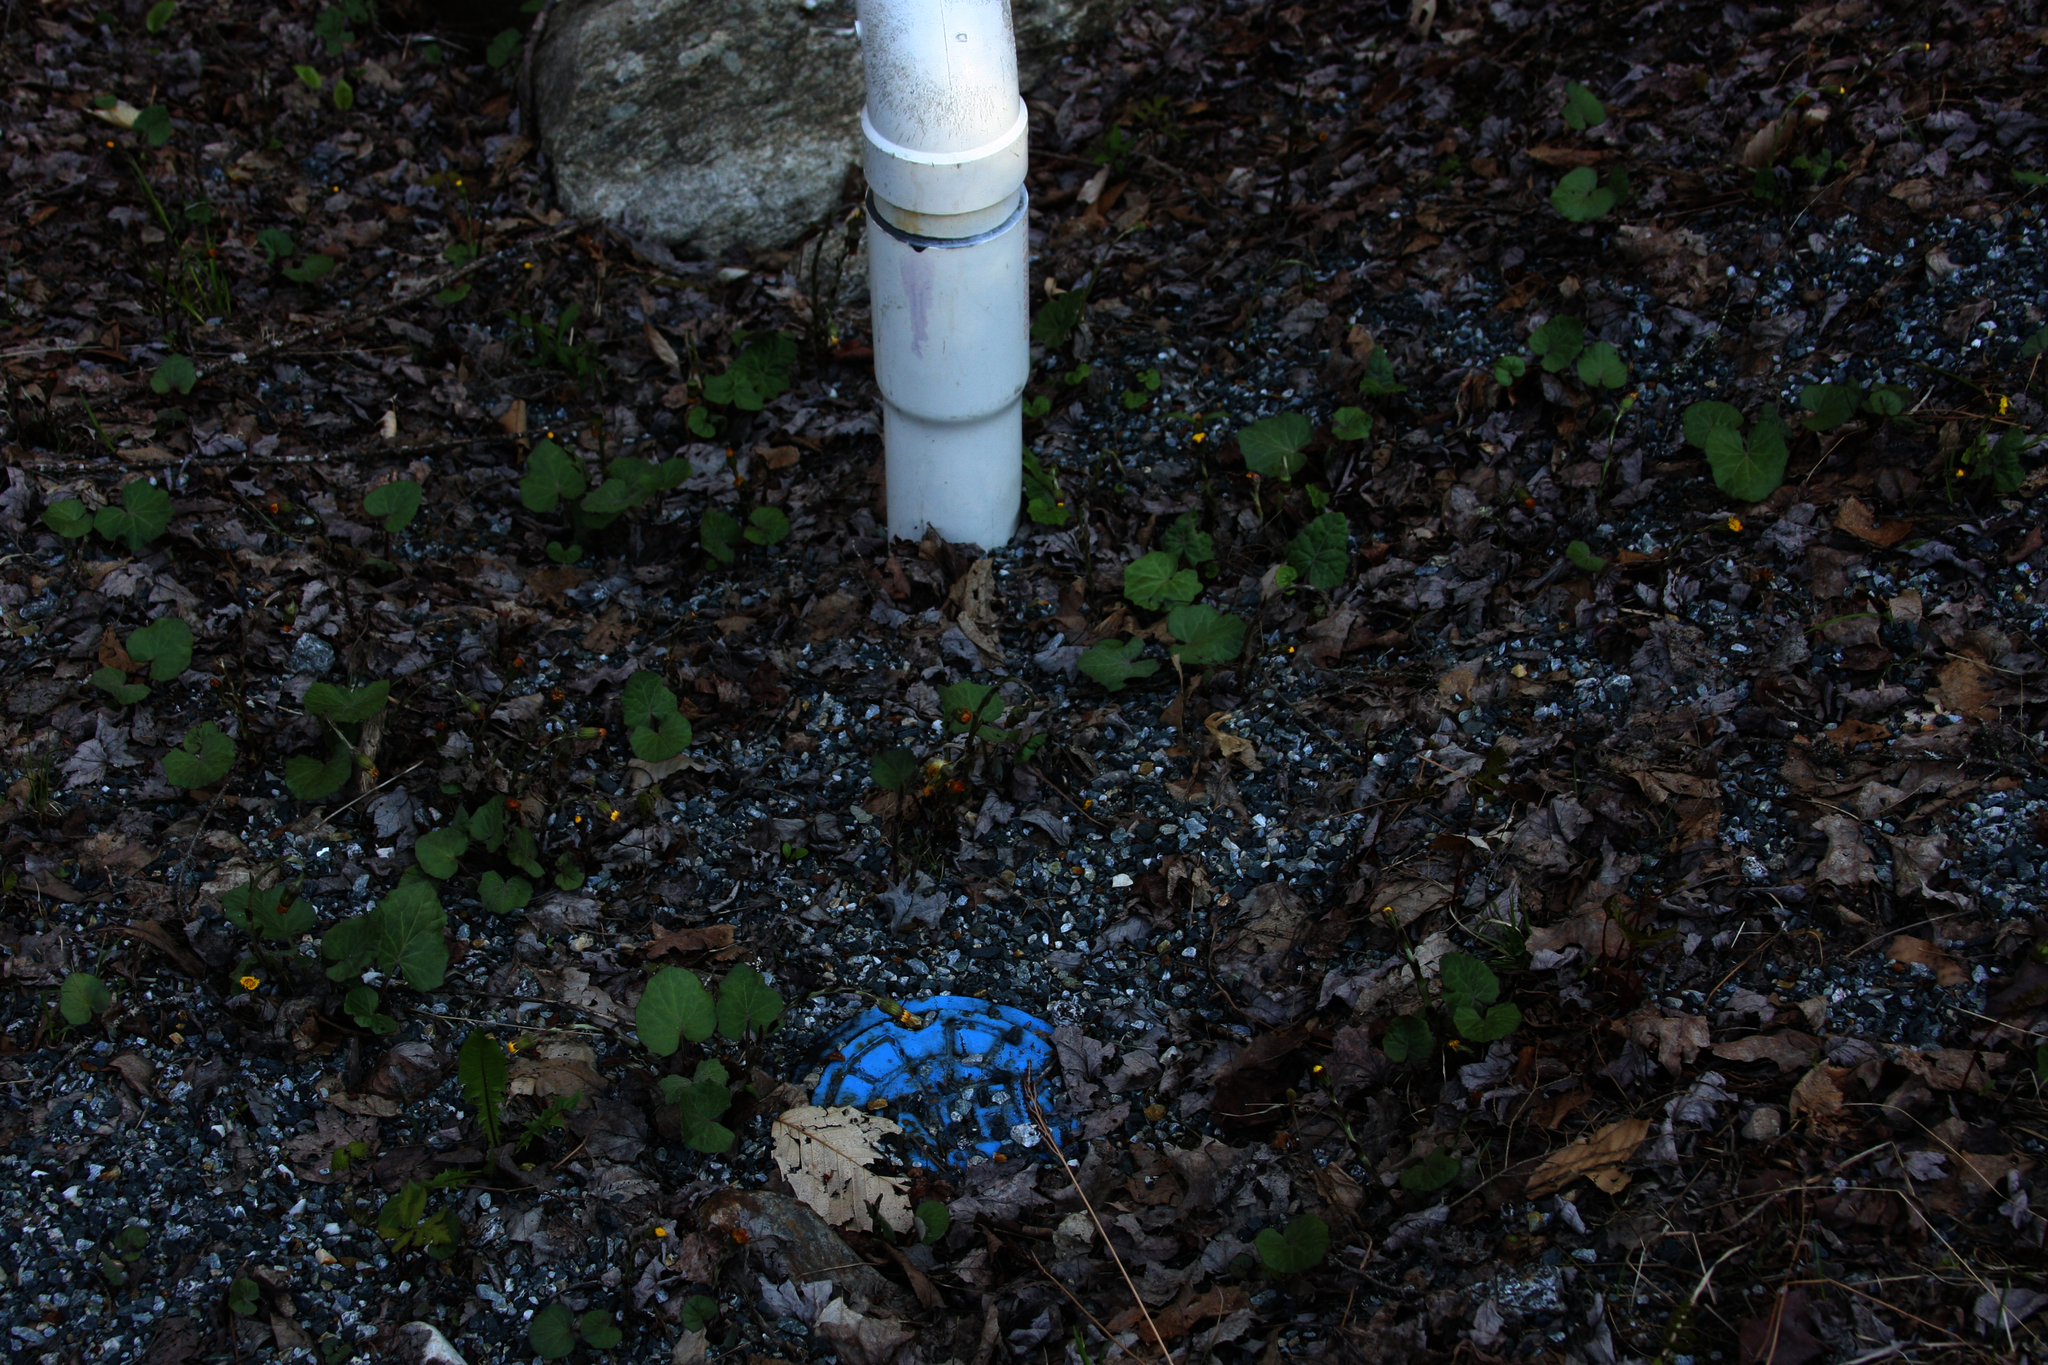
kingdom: Plantae
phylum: Tracheophyta
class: Magnoliopsida
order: Asterales
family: Asteraceae
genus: Tussilago
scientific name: Tussilago farfara
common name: Coltsfoot
